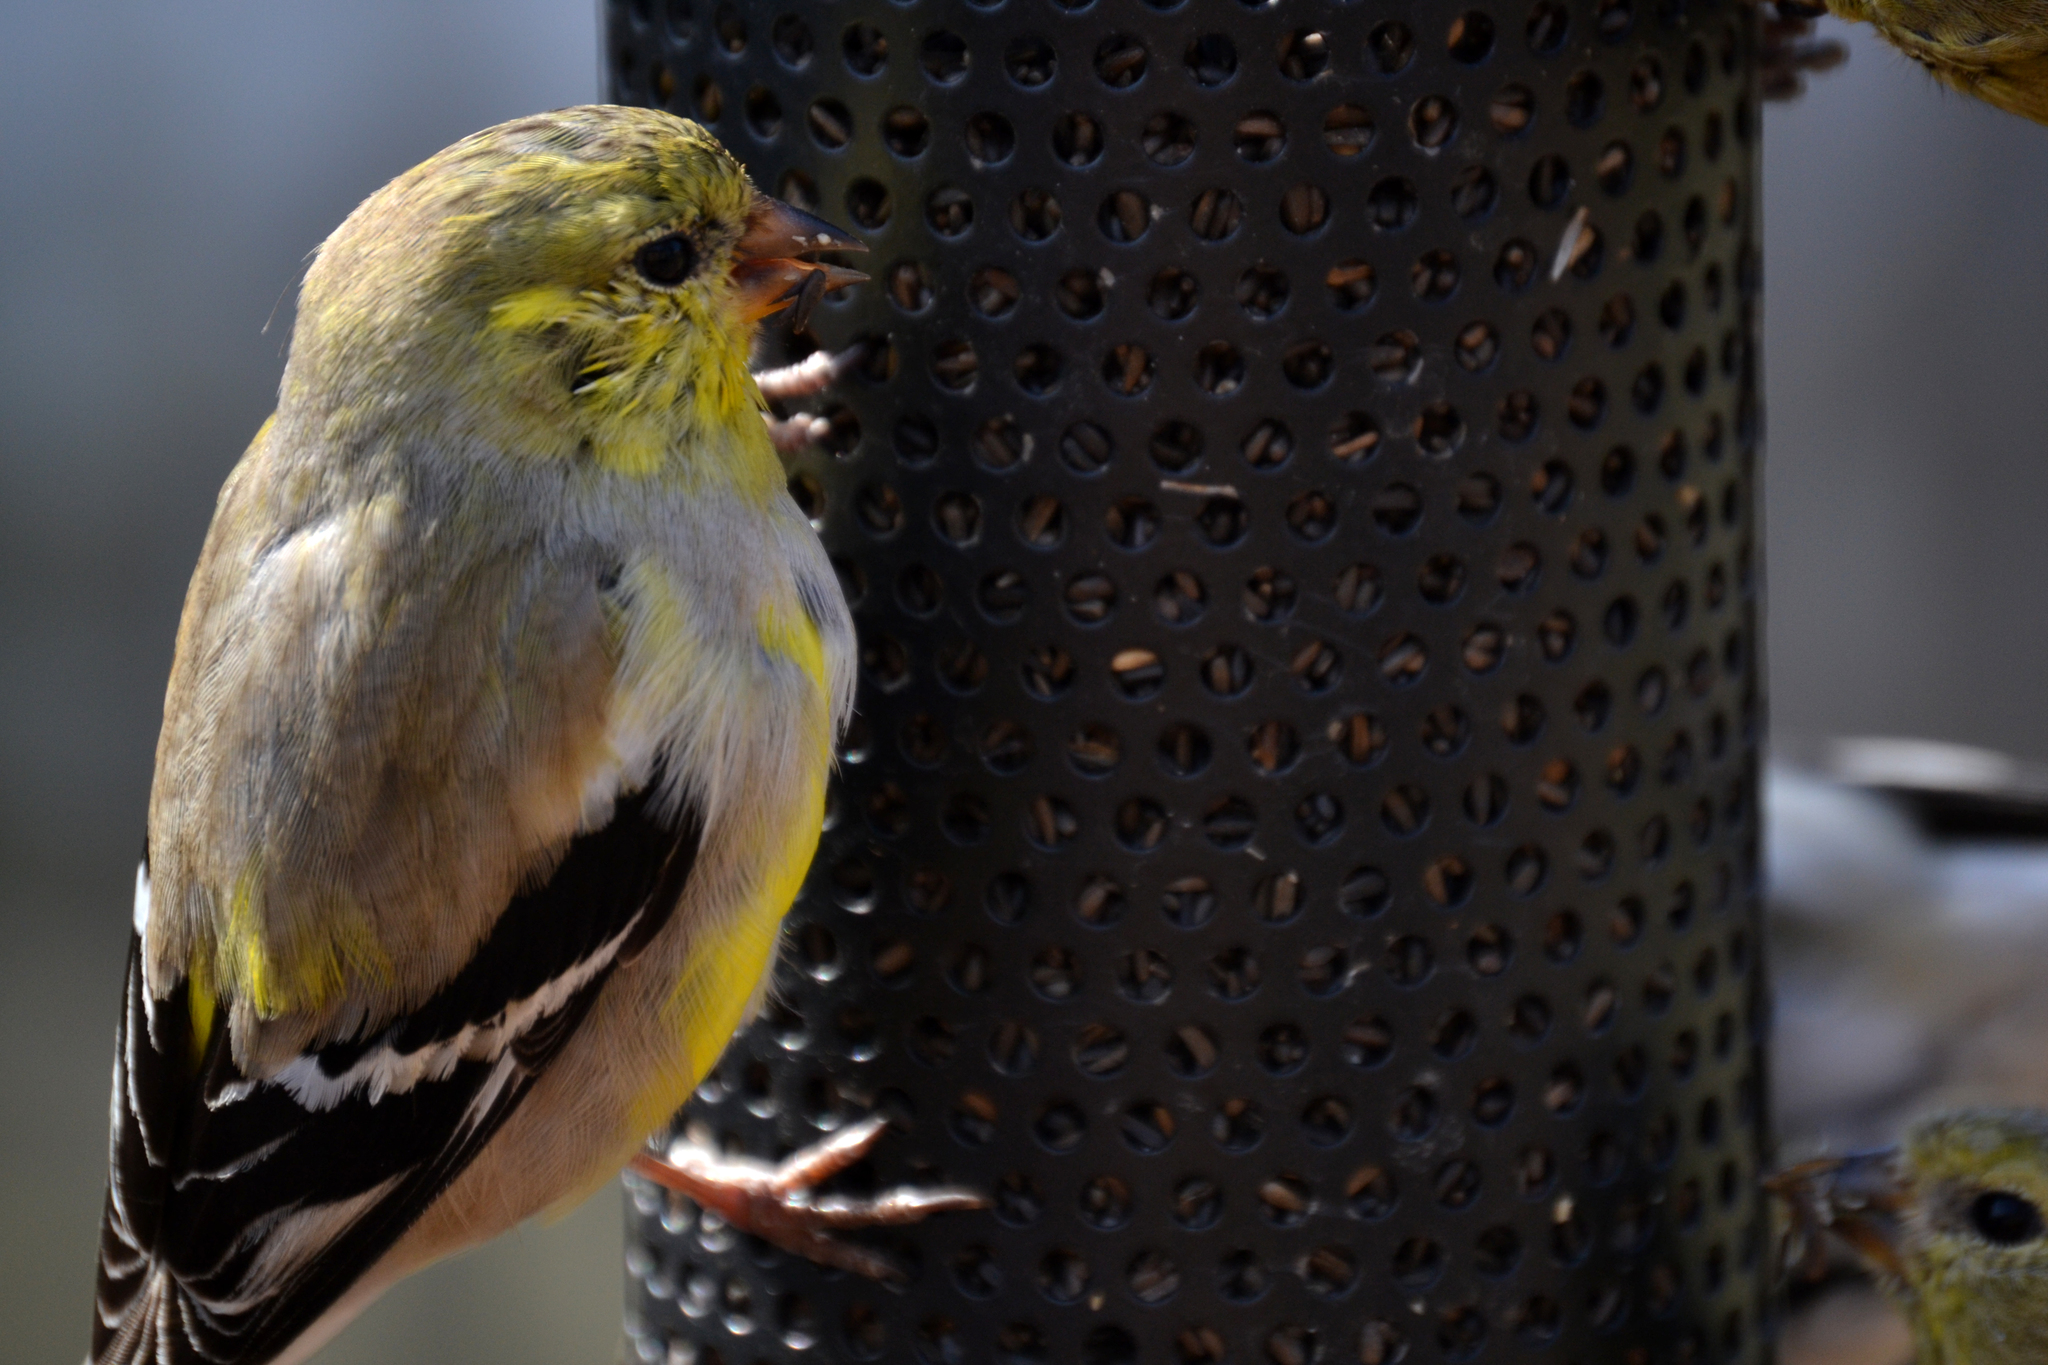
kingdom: Animalia
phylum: Chordata
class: Aves
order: Passeriformes
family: Fringillidae
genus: Spinus
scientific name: Spinus tristis
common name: American goldfinch
